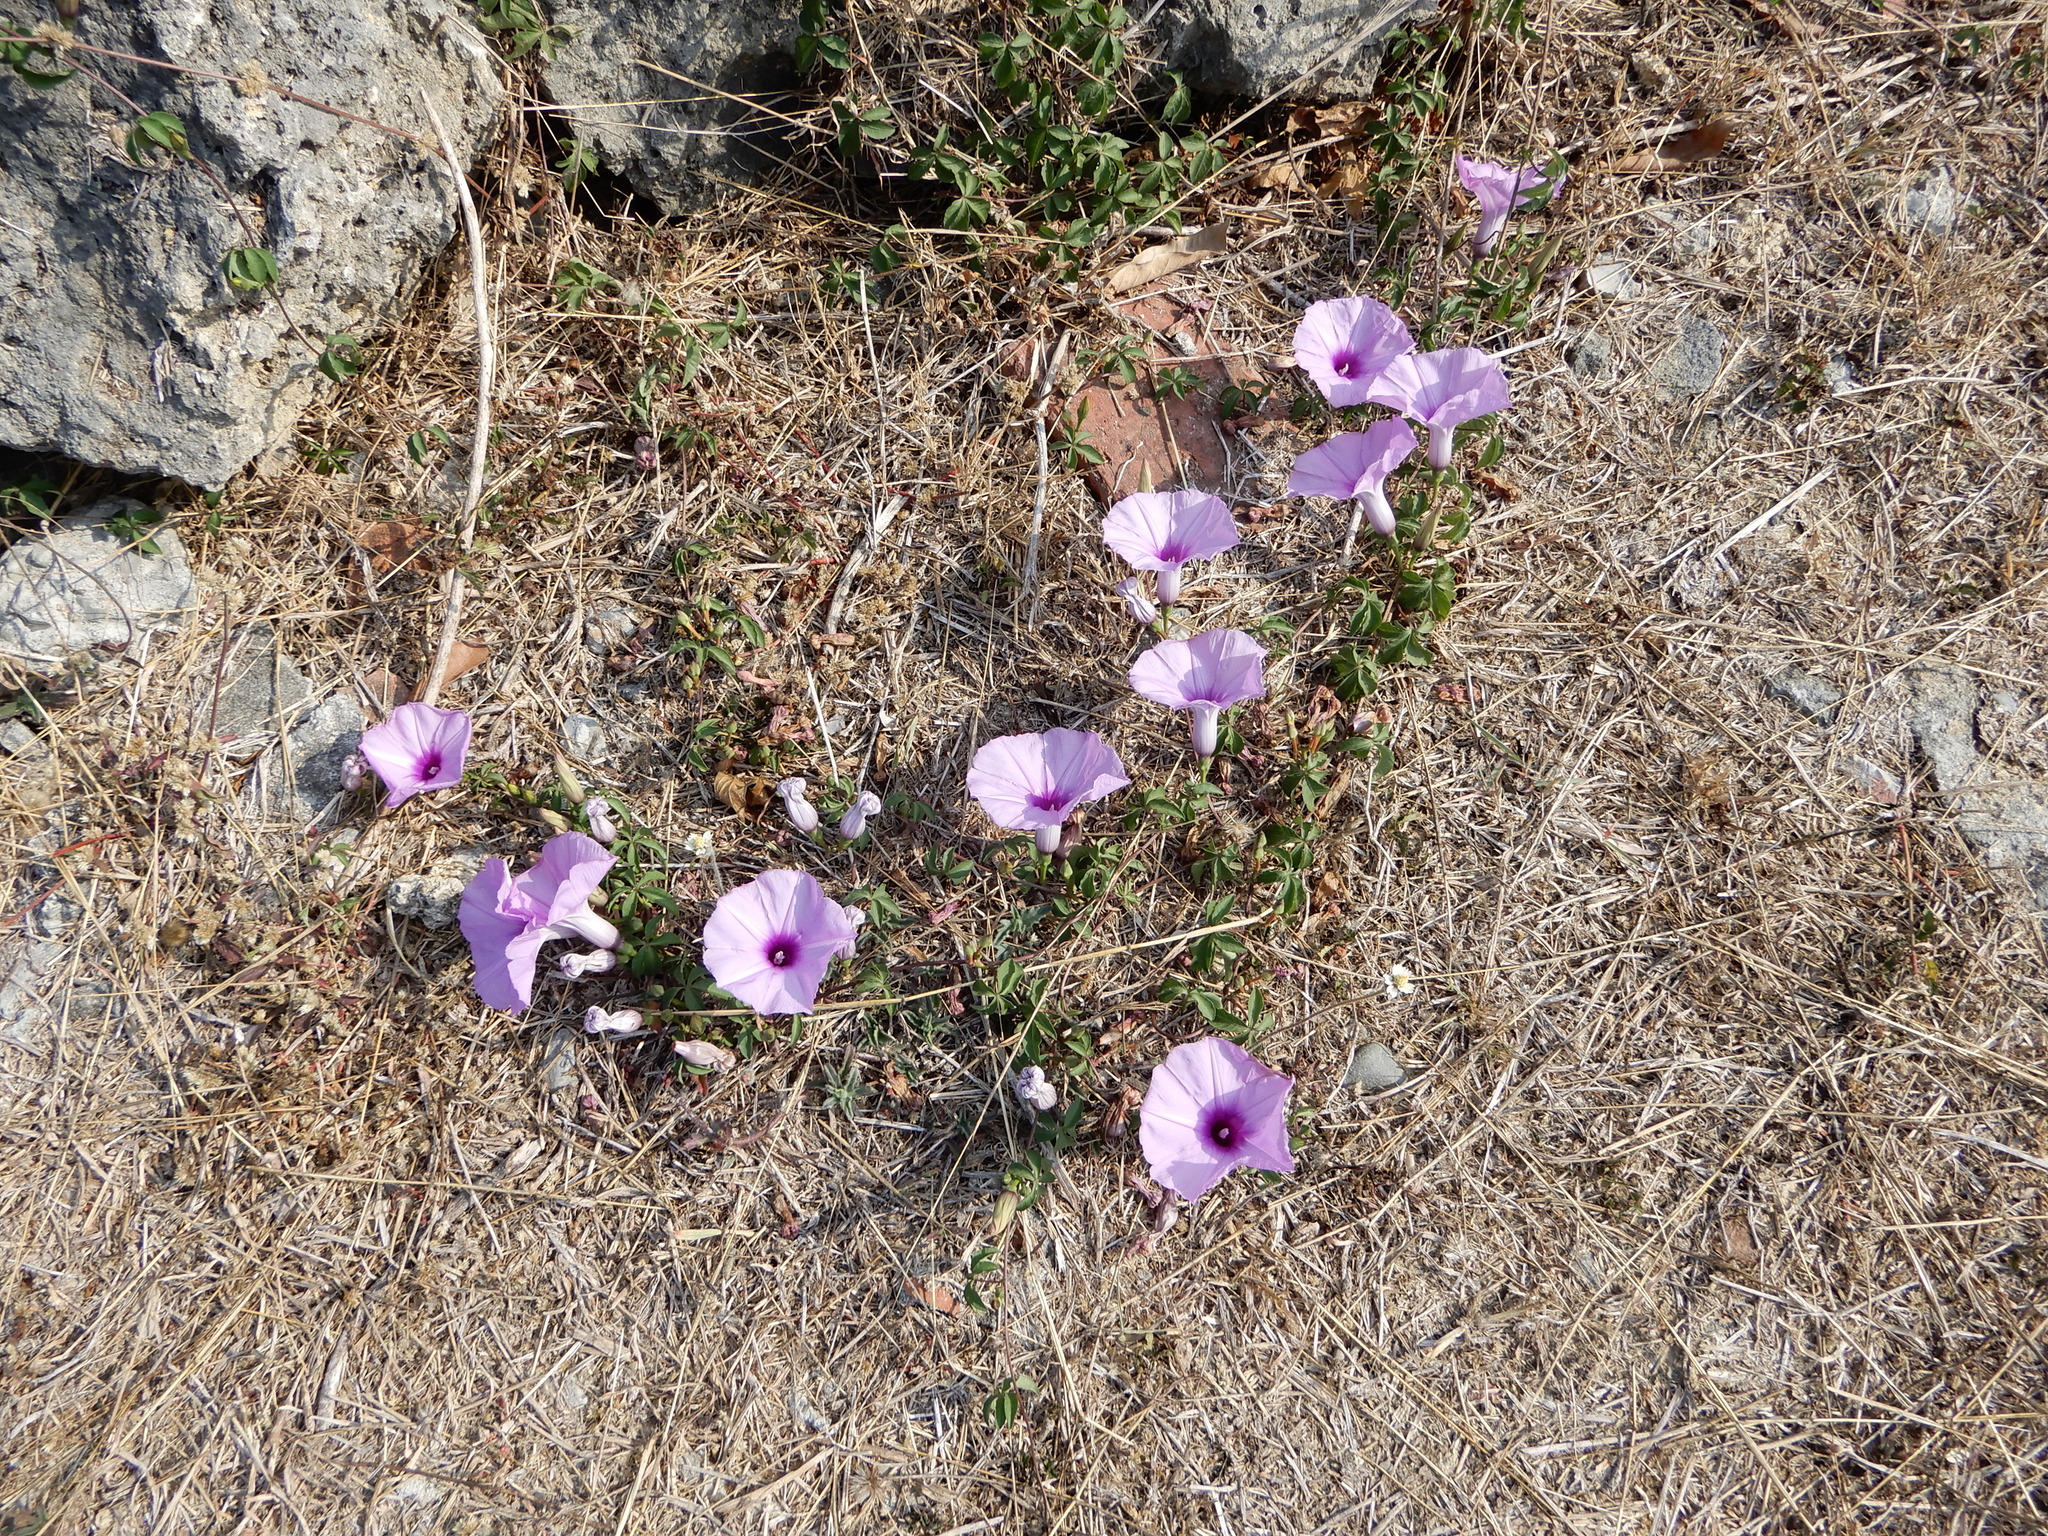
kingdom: Plantae
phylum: Tracheophyta
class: Magnoliopsida
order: Solanales
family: Convolvulaceae
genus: Ipomoea
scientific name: Ipomoea cairica
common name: Mile a minute vine
